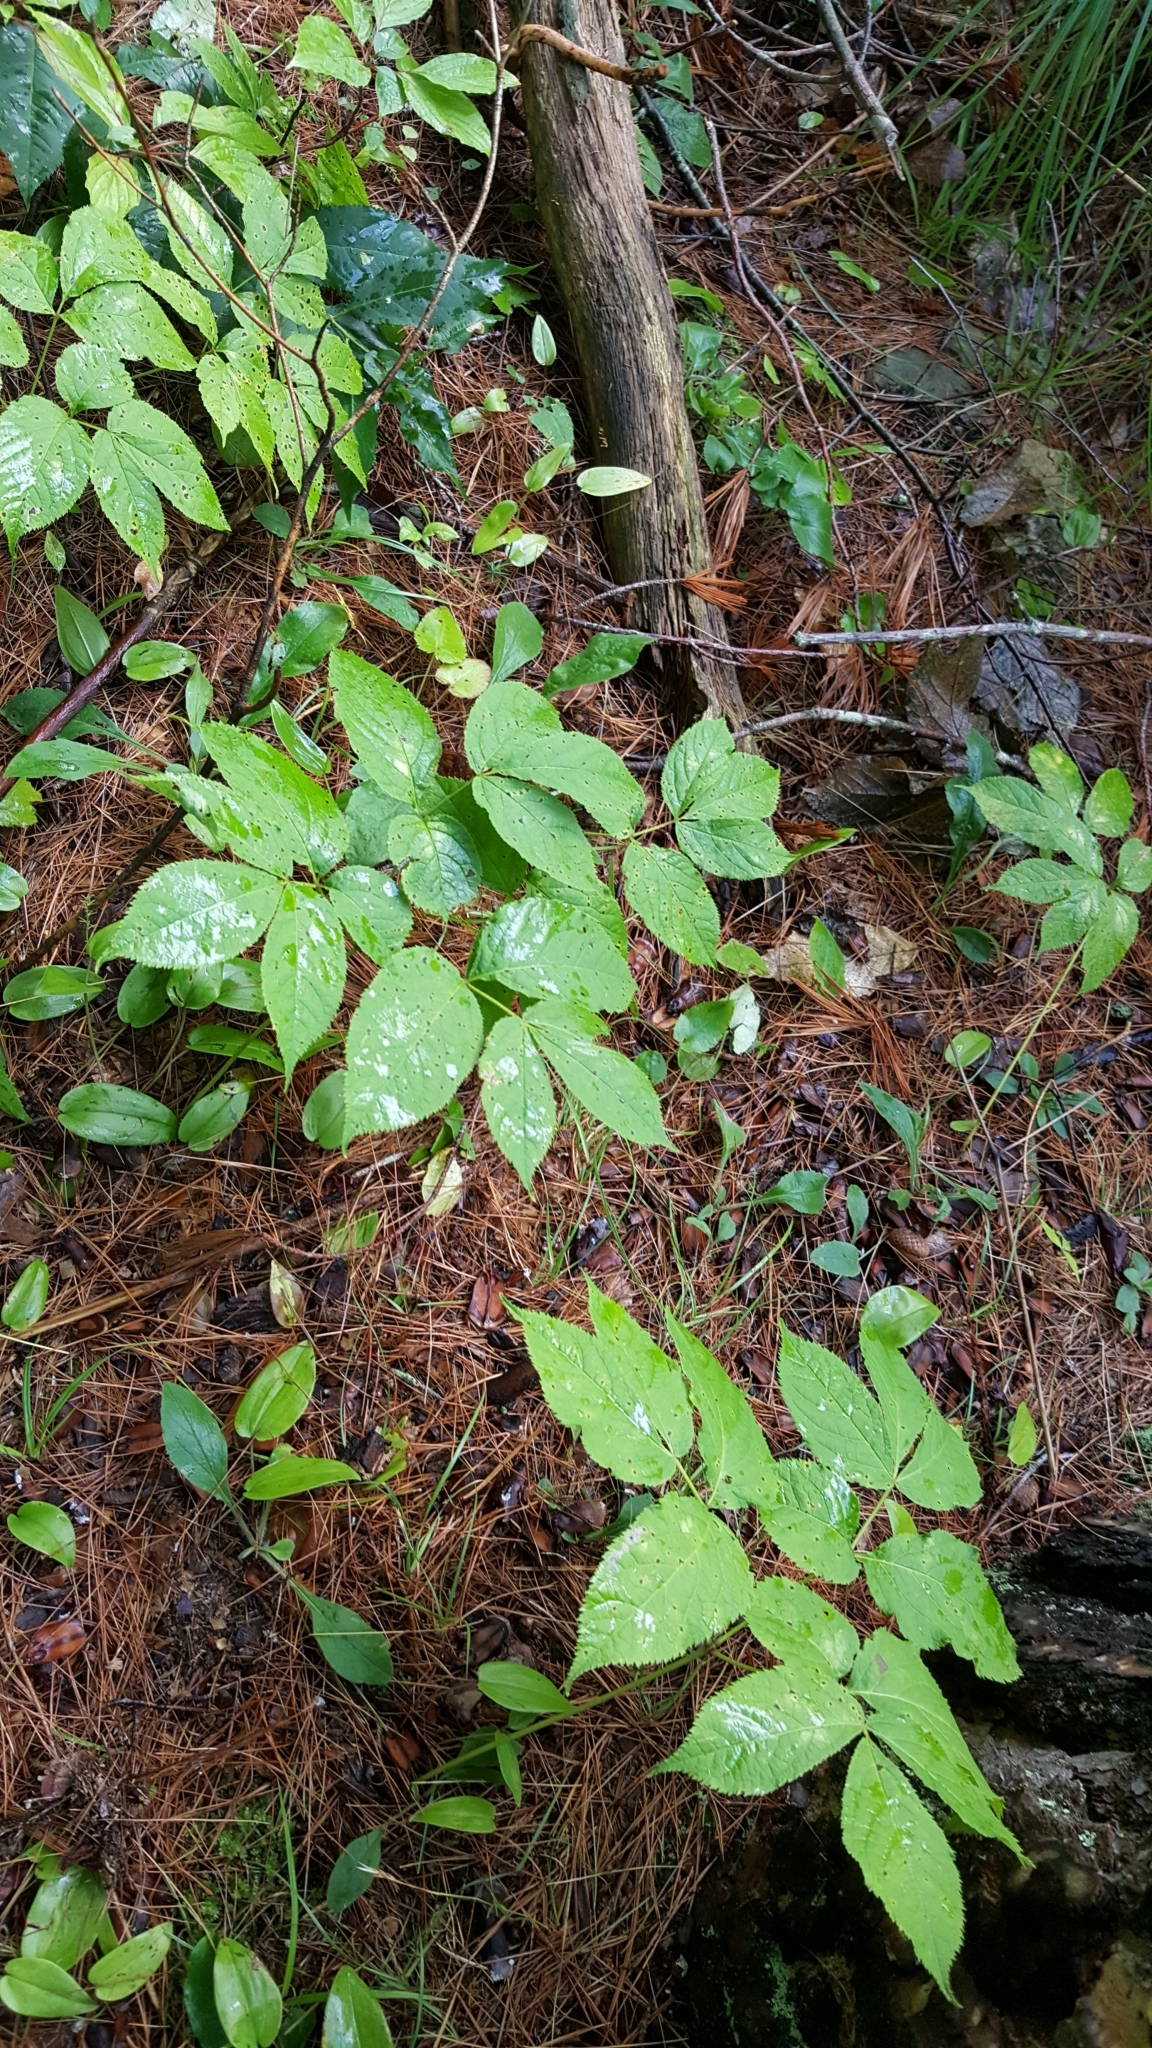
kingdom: Plantae
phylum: Tracheophyta
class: Magnoliopsida
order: Apiales
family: Araliaceae
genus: Aralia
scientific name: Aralia nudicaulis
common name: Wild sarsaparilla
